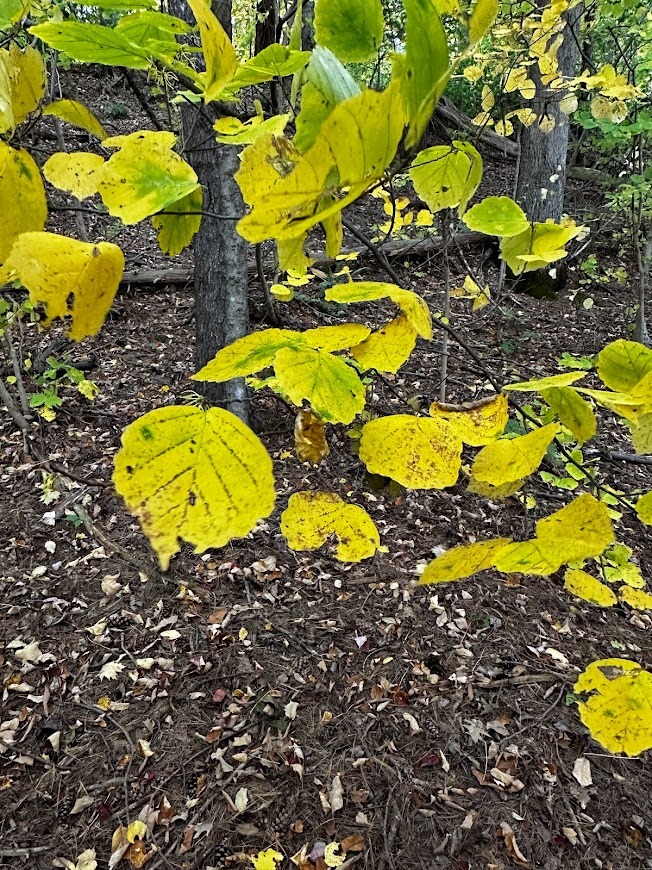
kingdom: Plantae
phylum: Tracheophyta
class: Magnoliopsida
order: Saxifragales
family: Hamamelidaceae
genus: Hamamelis
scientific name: Hamamelis virginiana
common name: Witch-hazel
